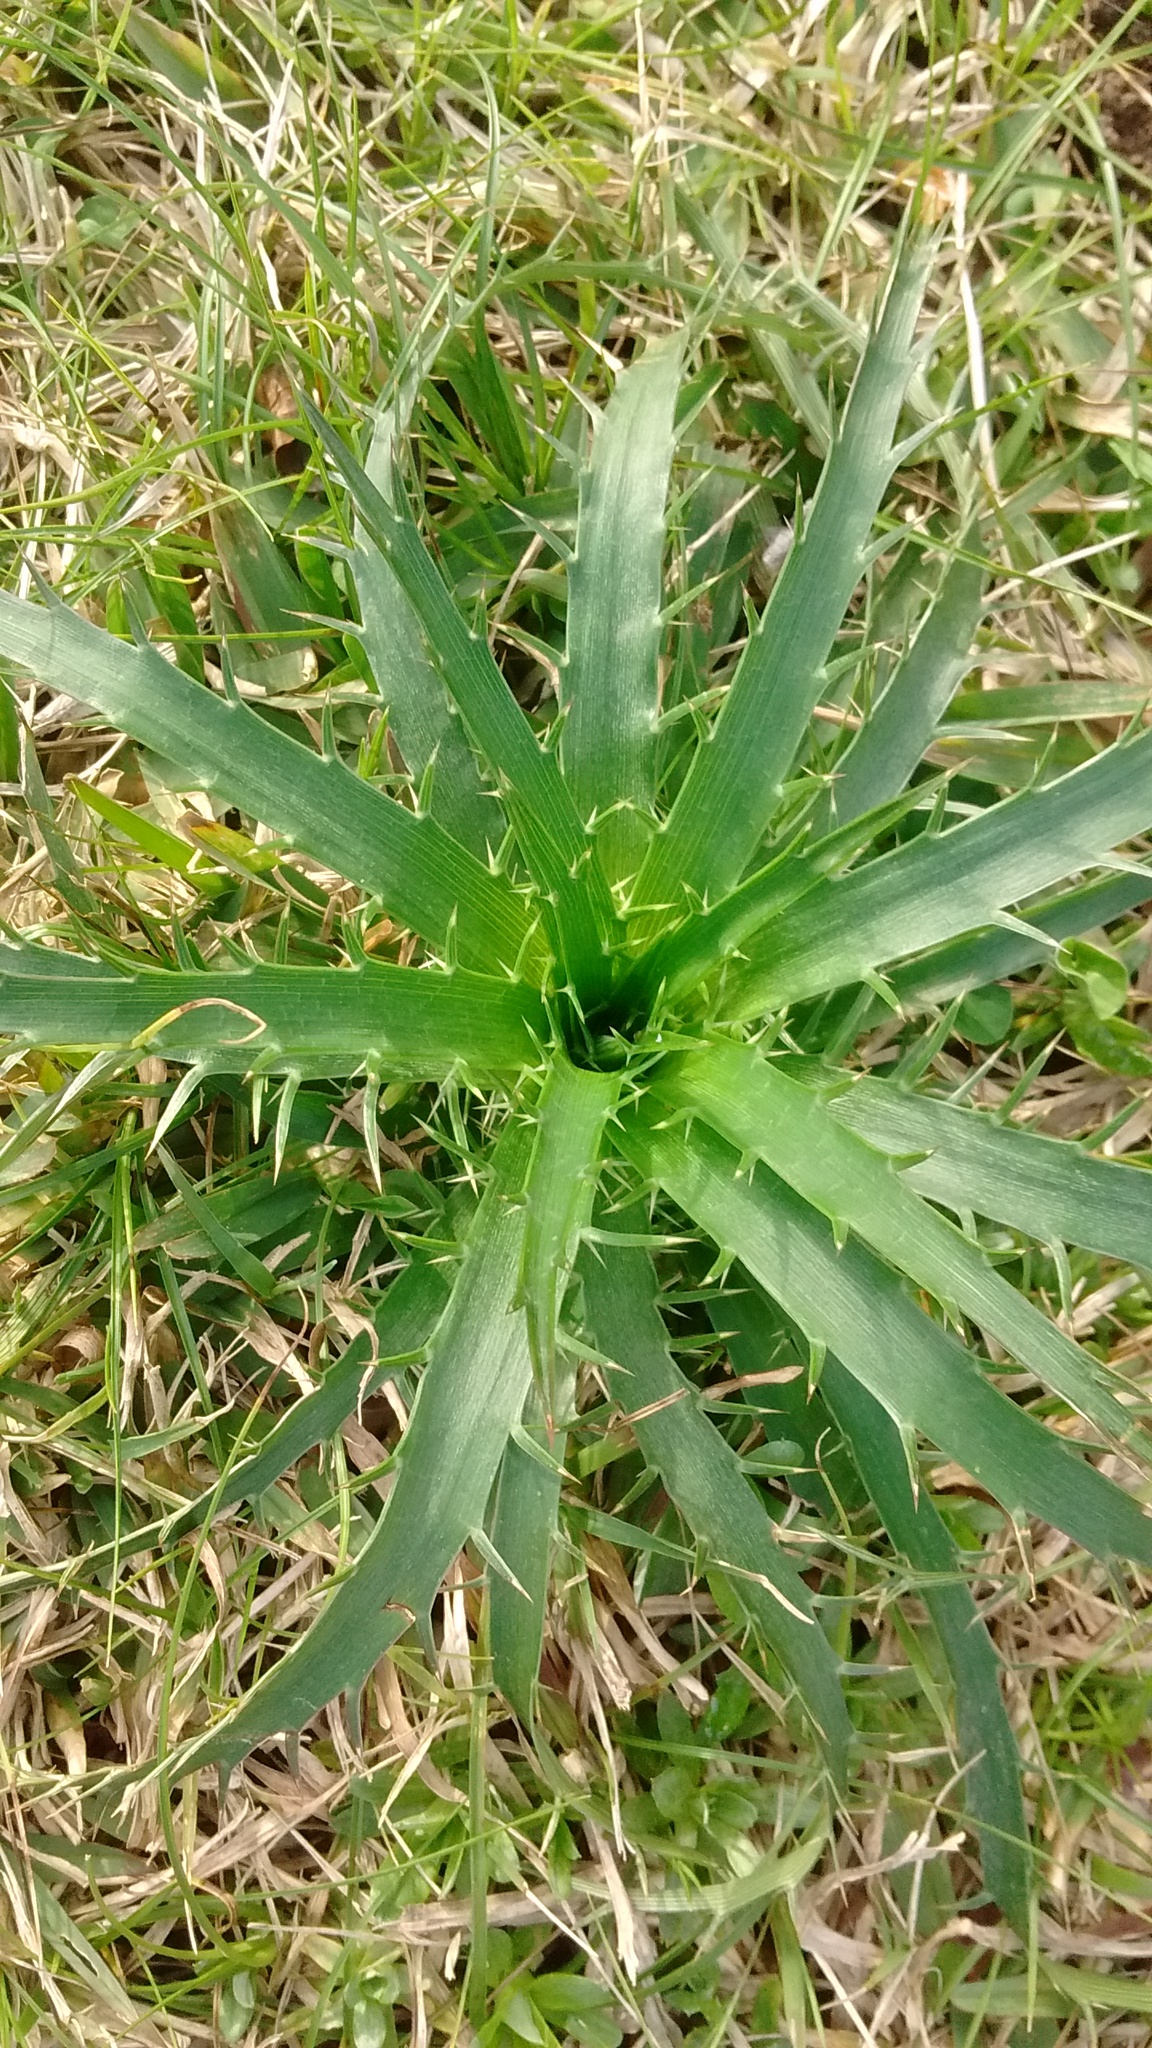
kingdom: Plantae
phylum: Tracheophyta
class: Magnoliopsida
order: Apiales
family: Apiaceae
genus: Eryngium
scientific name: Eryngium humboldtii
